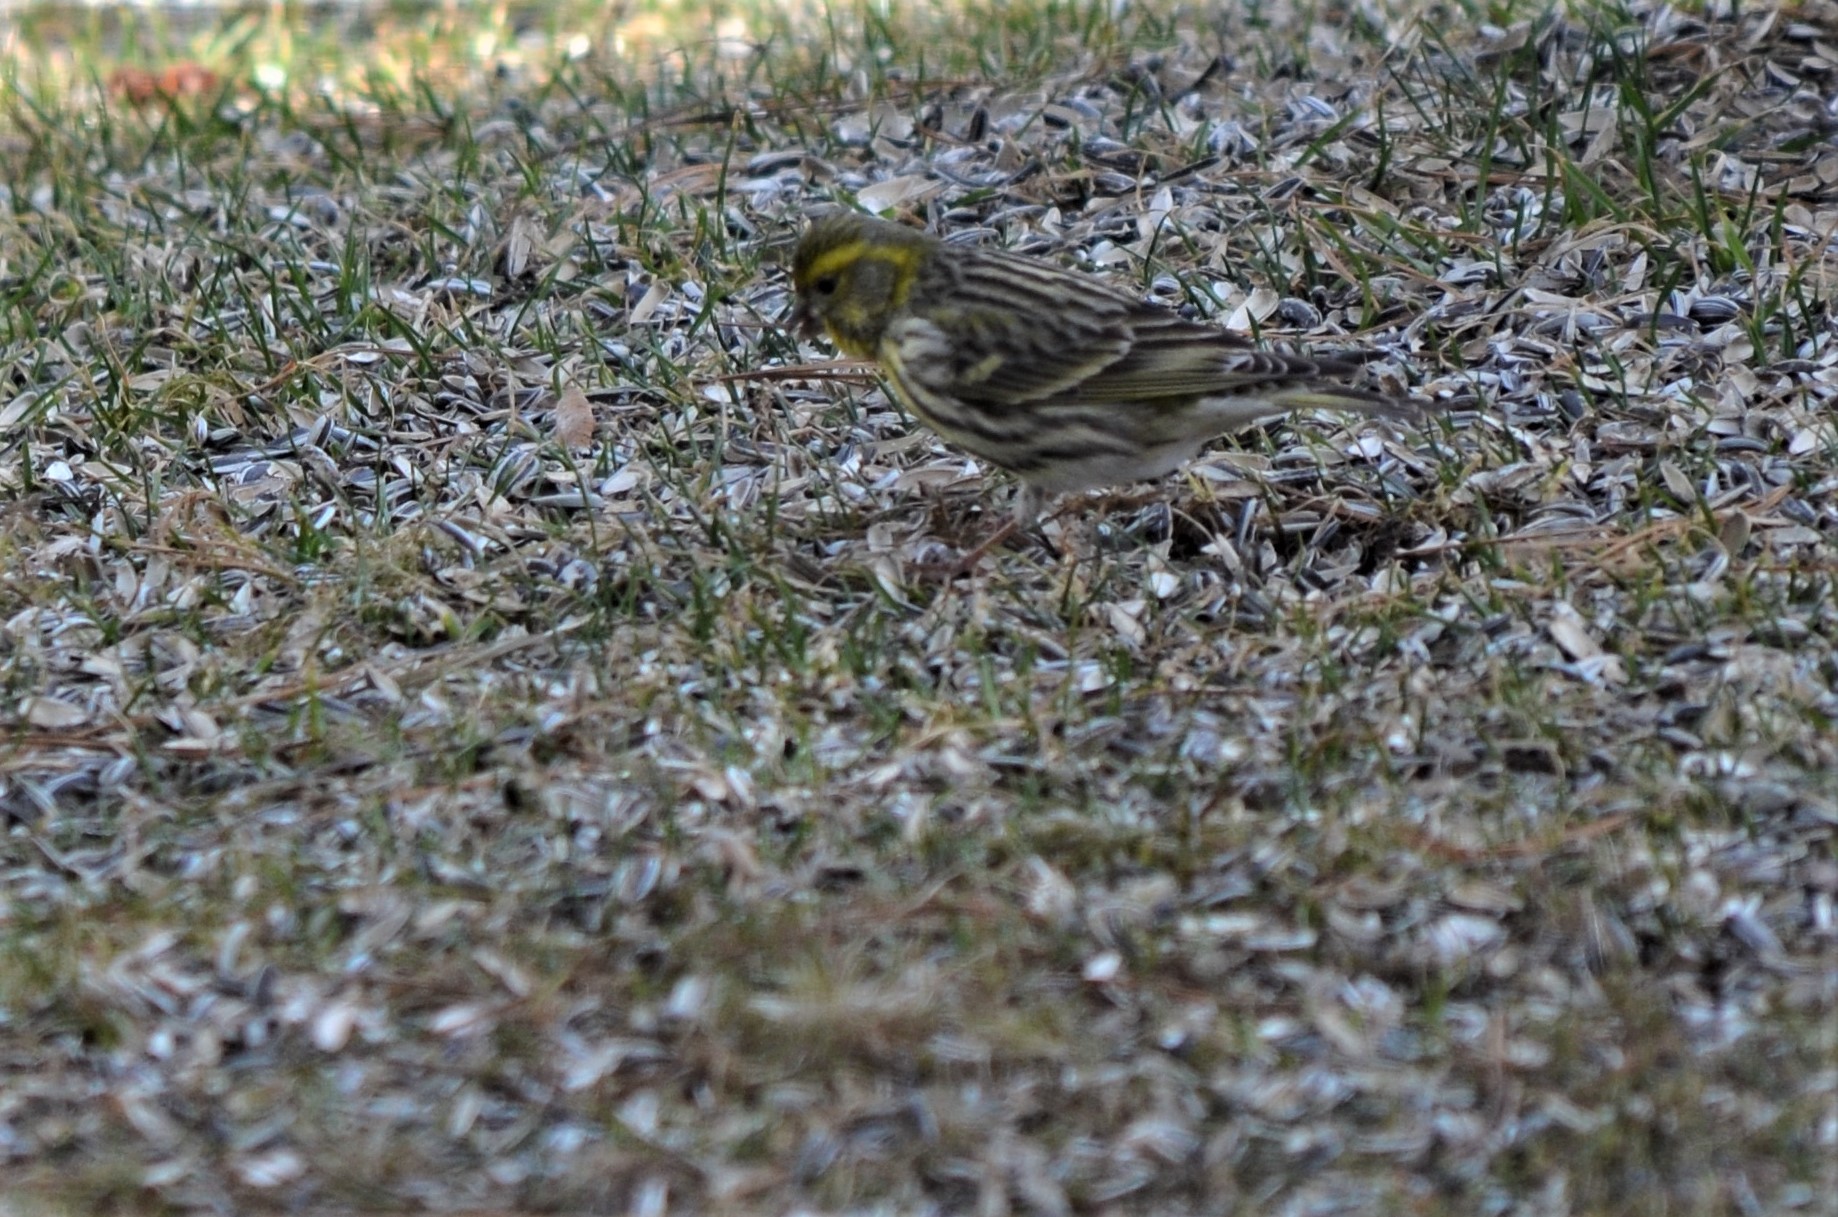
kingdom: Animalia
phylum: Chordata
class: Aves
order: Passeriformes
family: Fringillidae
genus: Spinus
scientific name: Spinus spinus
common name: Eurasian siskin
